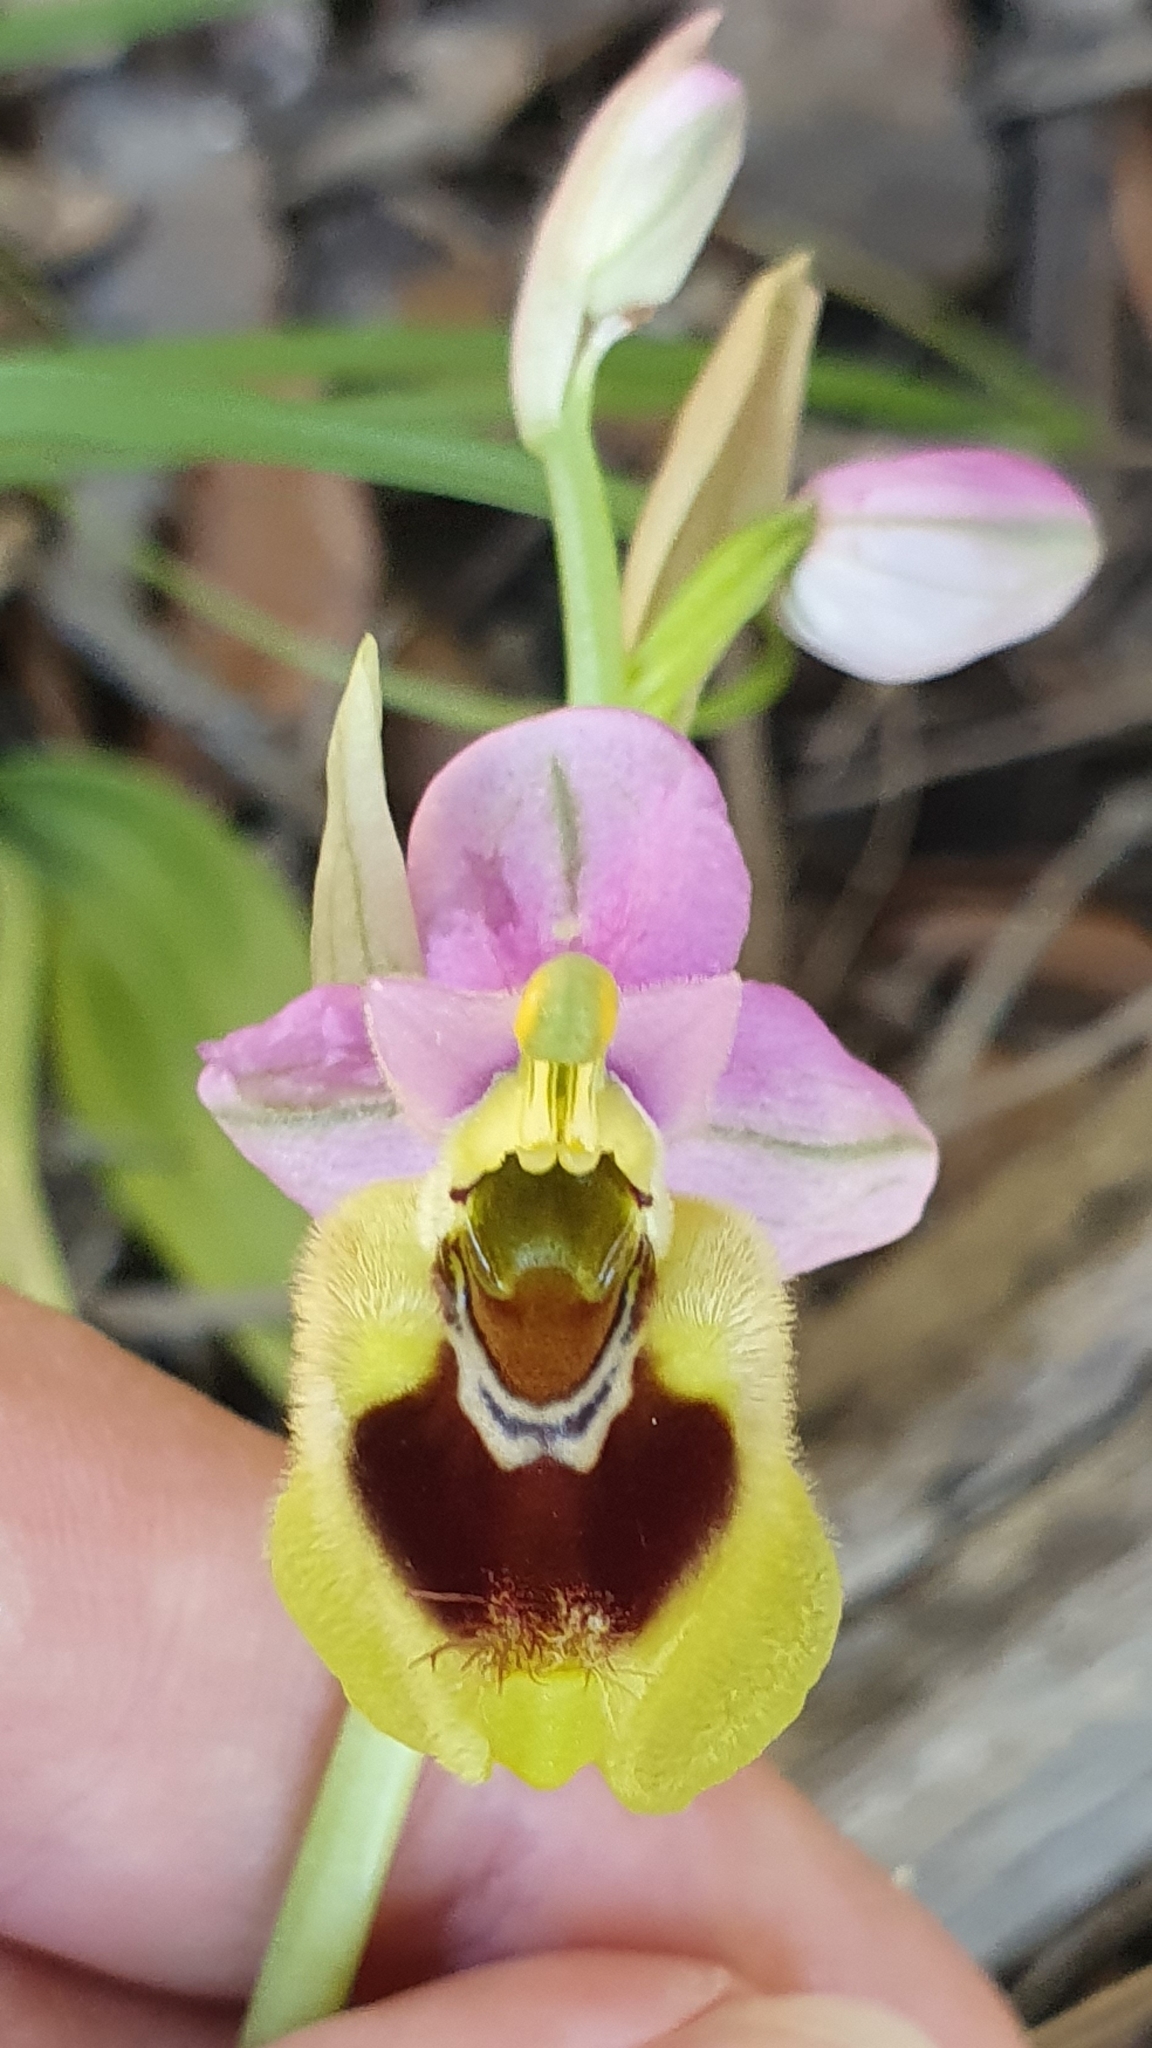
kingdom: Plantae
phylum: Tracheophyta
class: Liliopsida
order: Asparagales
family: Orchidaceae
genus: Ophrys
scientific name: Ophrys tenthredinifera
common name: Sawfly orchid
